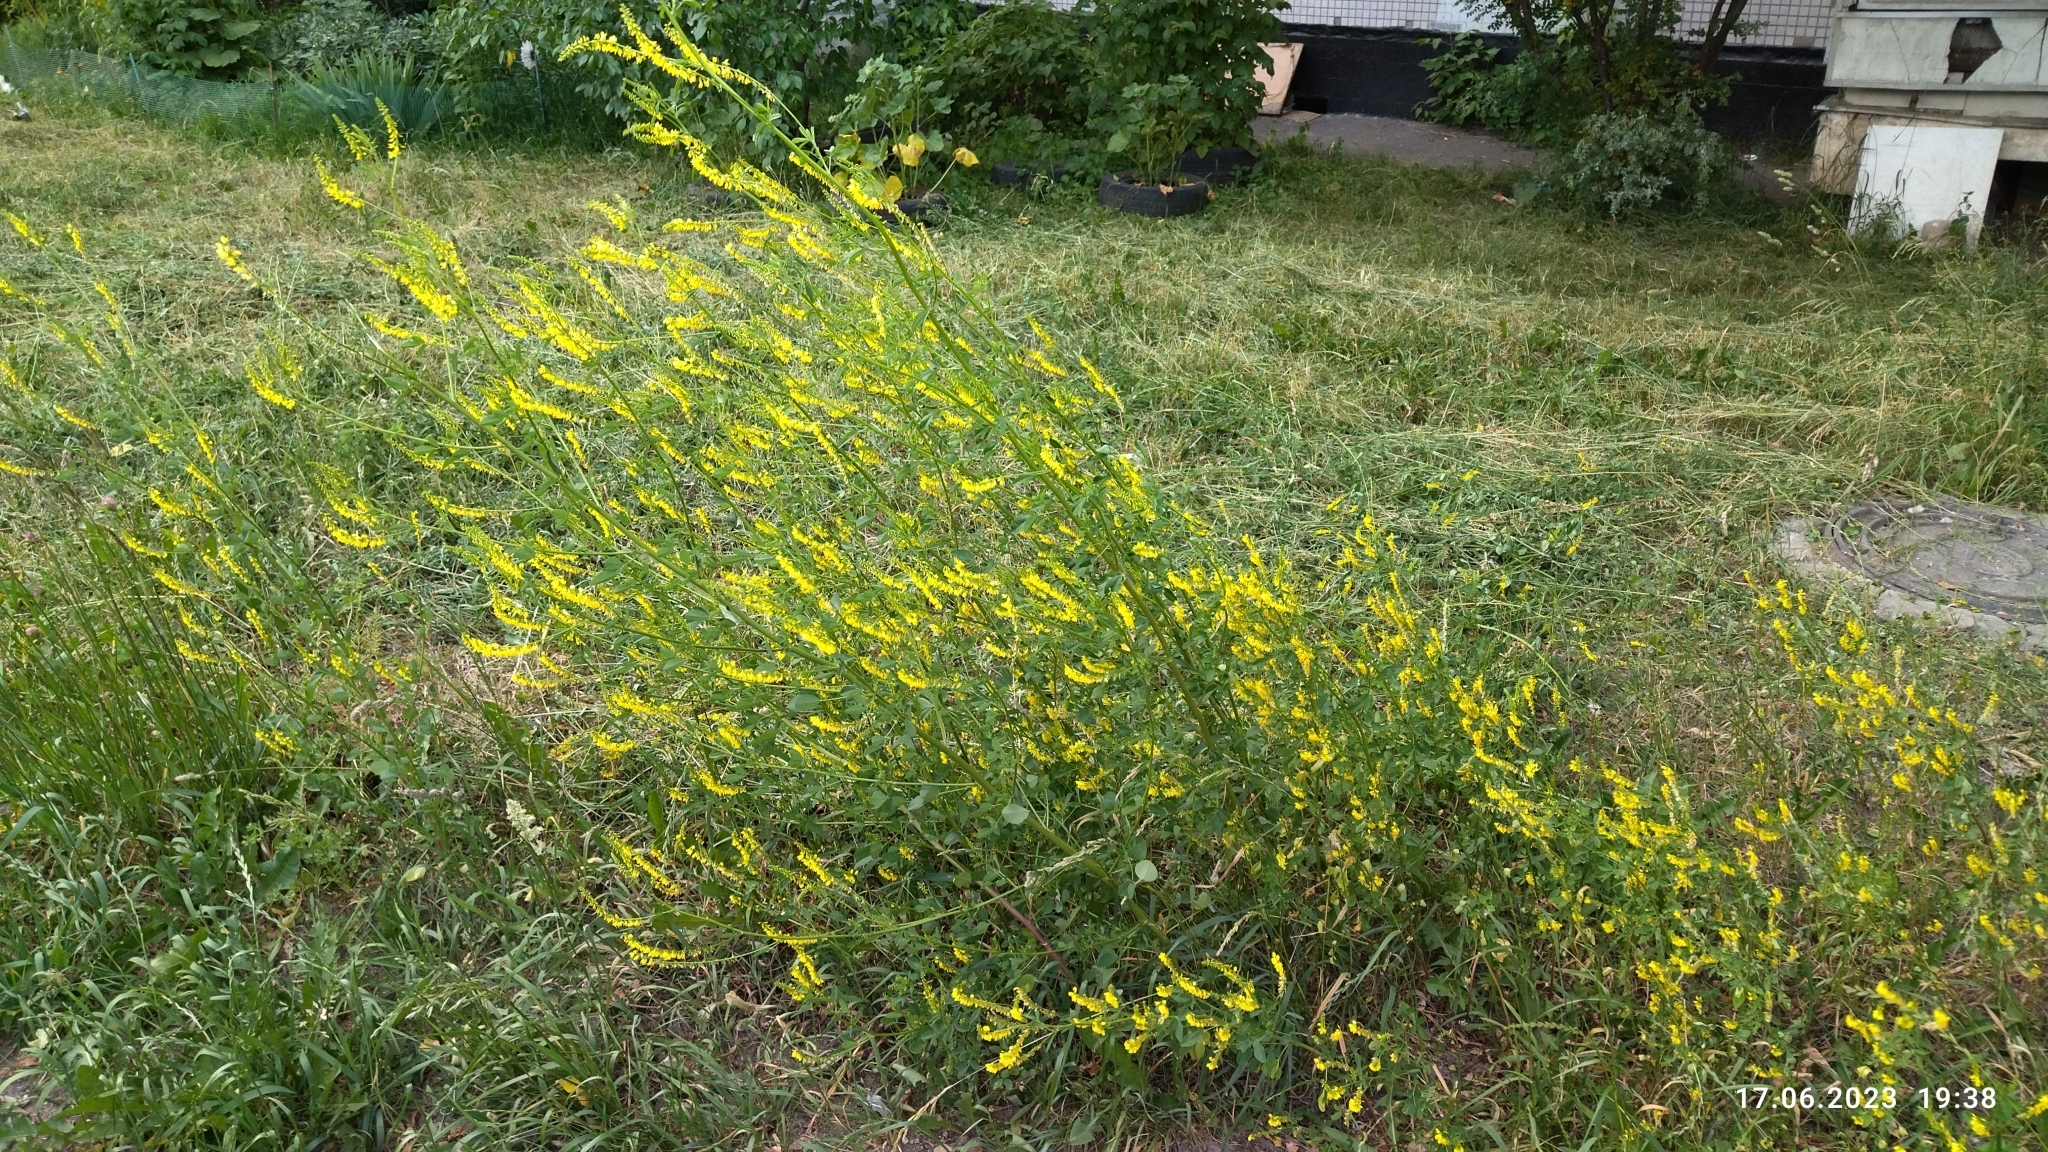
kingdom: Plantae
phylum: Tracheophyta
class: Magnoliopsida
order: Fabales
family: Fabaceae
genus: Melilotus
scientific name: Melilotus officinalis
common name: Sweetclover
